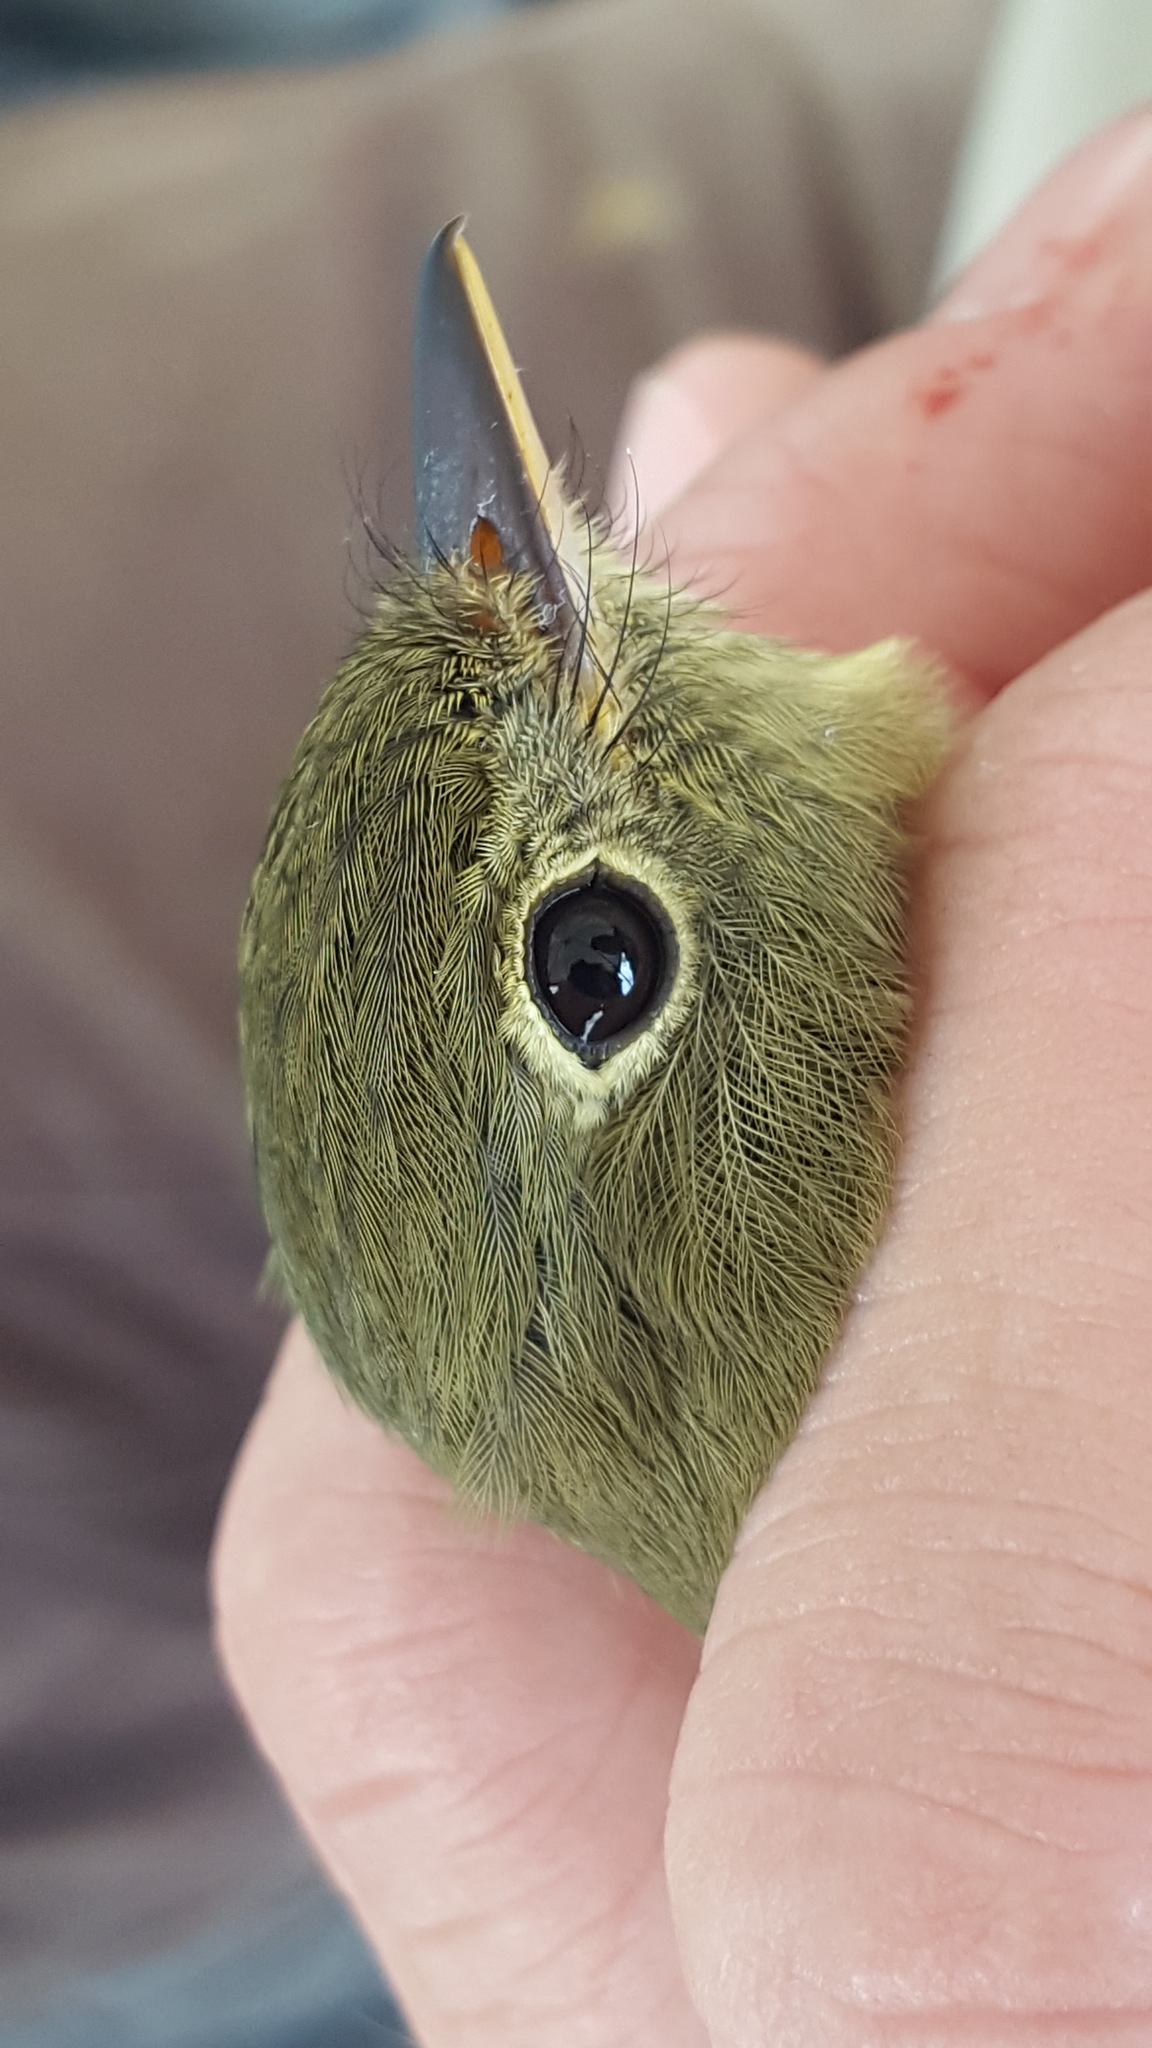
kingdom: Animalia
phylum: Chordata
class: Aves
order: Passeriformes
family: Tyrannidae
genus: Empidonax
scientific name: Empidonax flaviventris
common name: Yellow-bellied flycatcher
